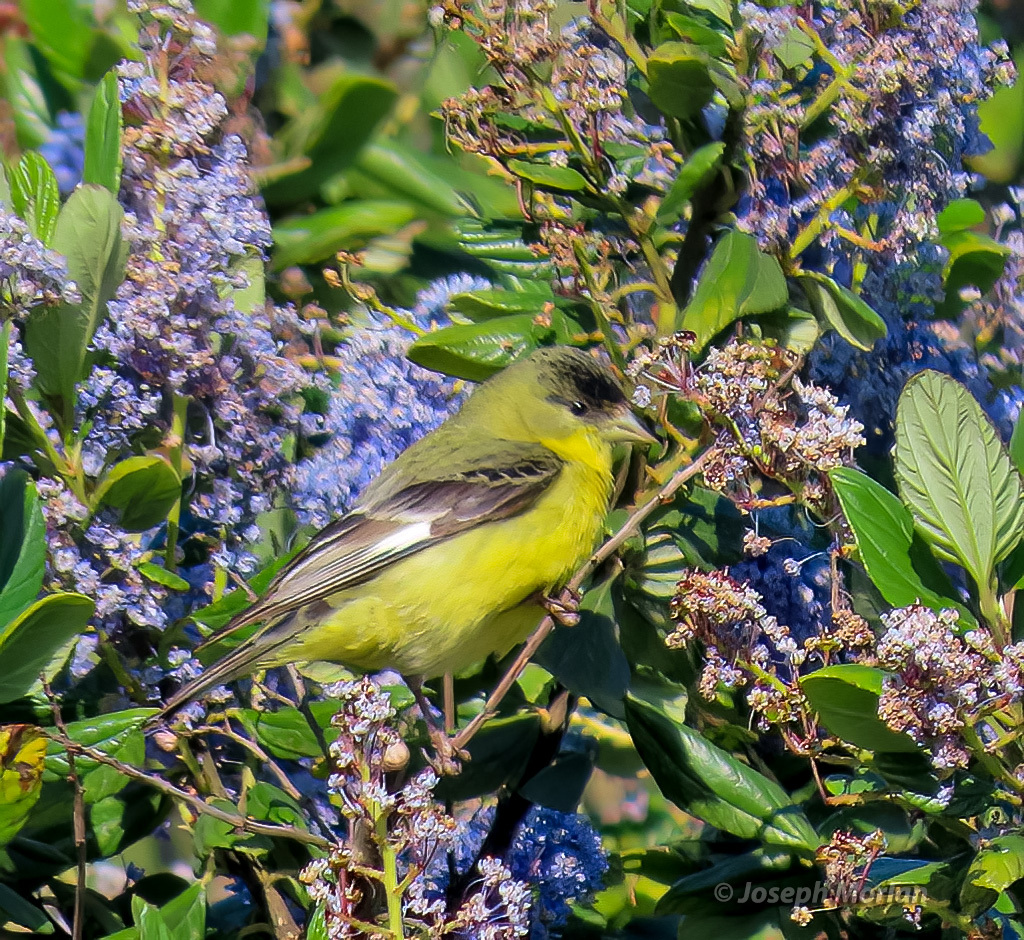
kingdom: Animalia
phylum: Chordata
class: Aves
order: Passeriformes
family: Fringillidae
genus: Spinus
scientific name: Spinus psaltria
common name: Lesser goldfinch
